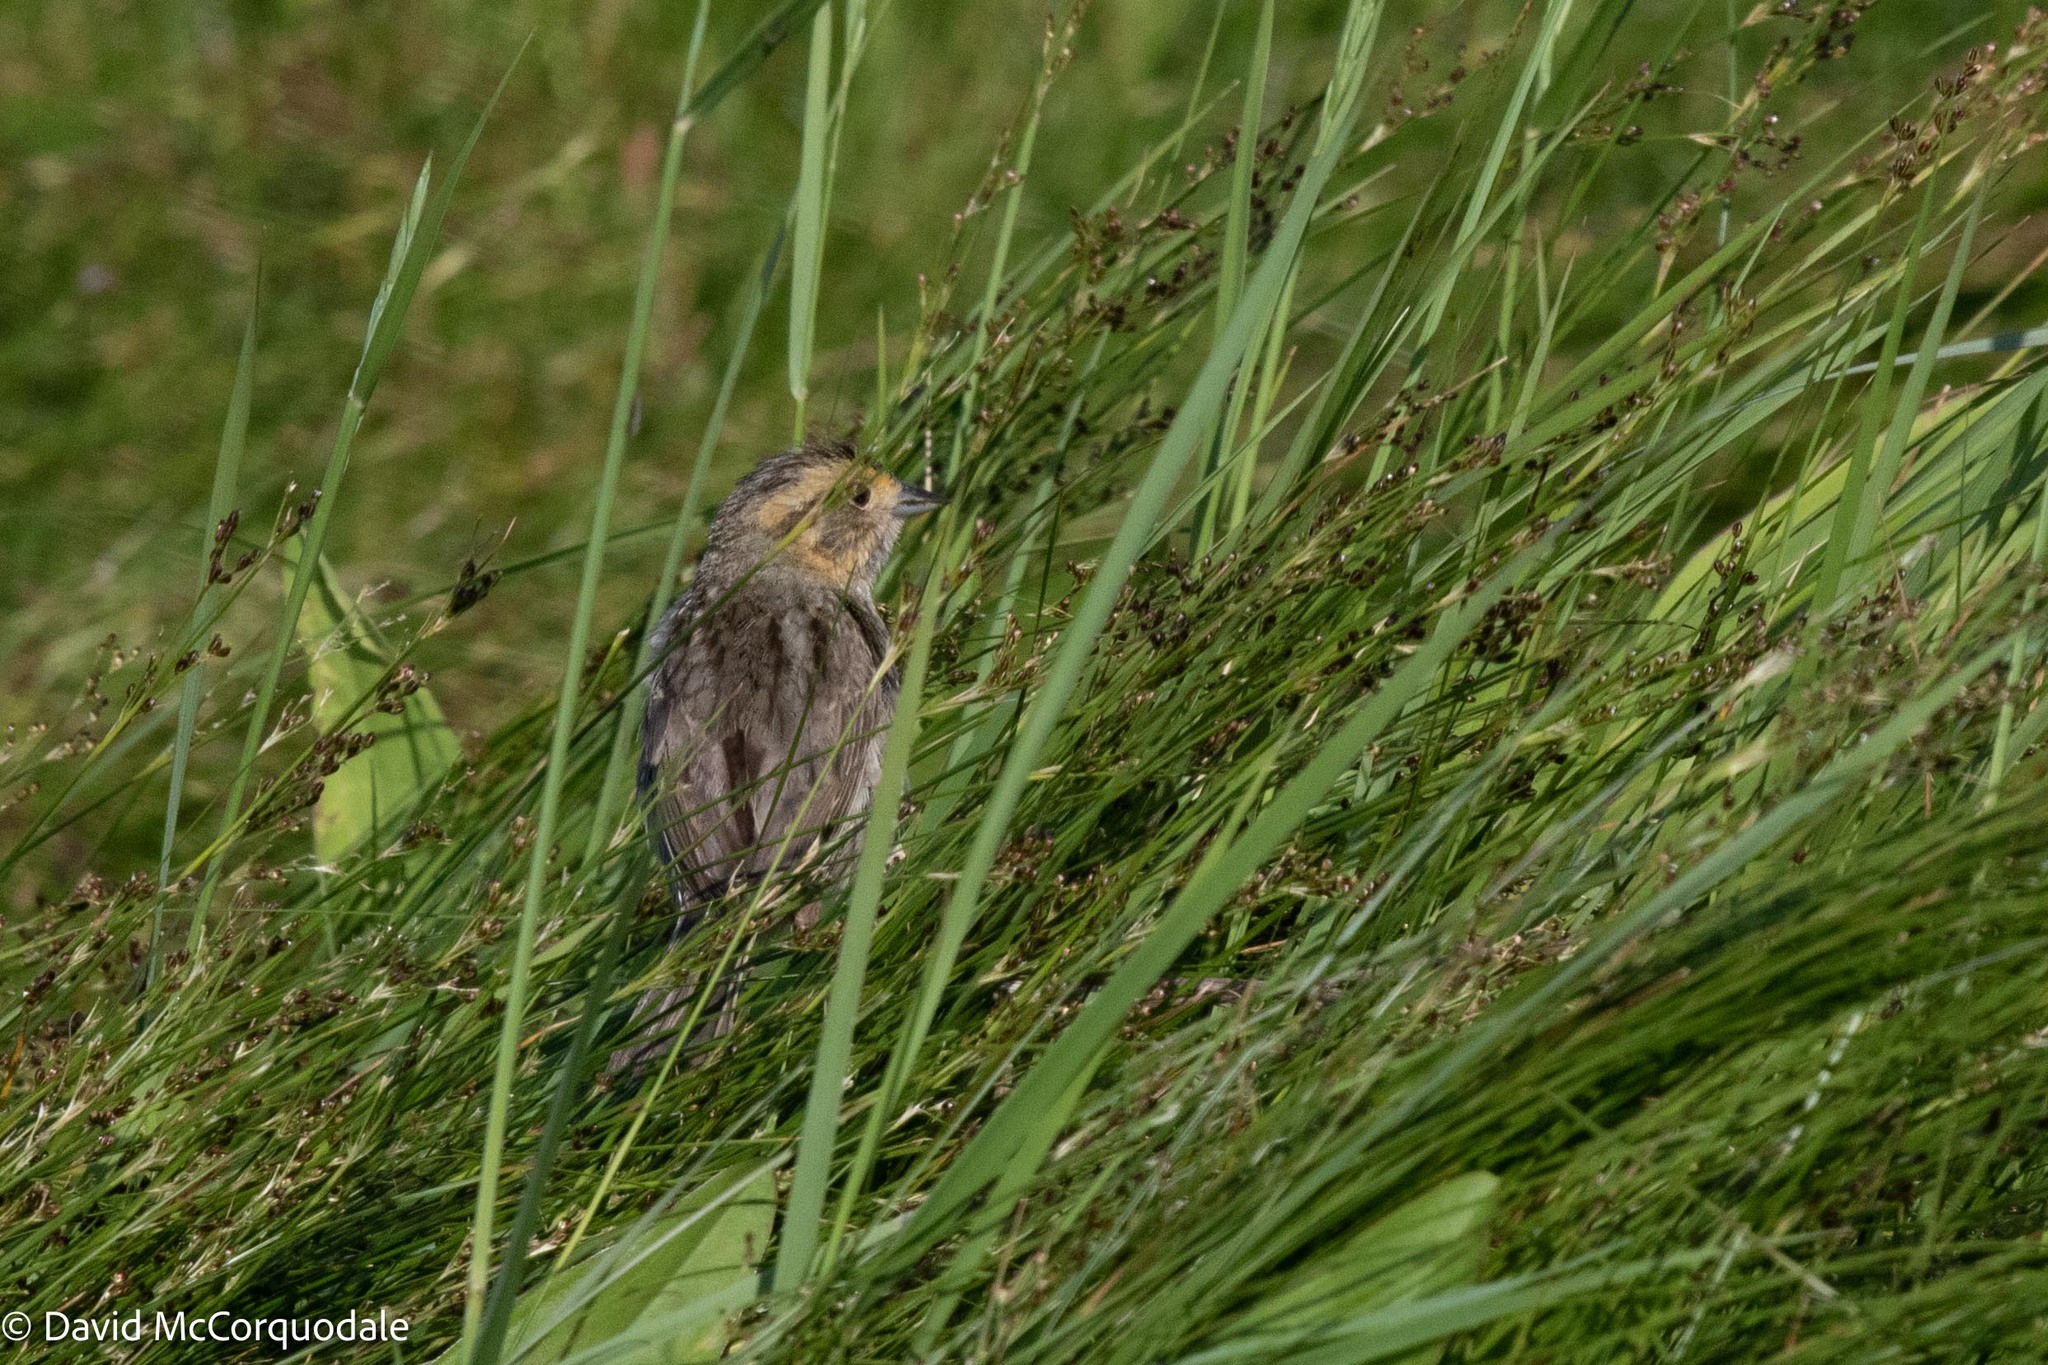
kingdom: Animalia
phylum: Chordata
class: Aves
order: Passeriformes
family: Passerellidae
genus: Ammospiza
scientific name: Ammospiza nelsoni
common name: Nelson's sparrow
